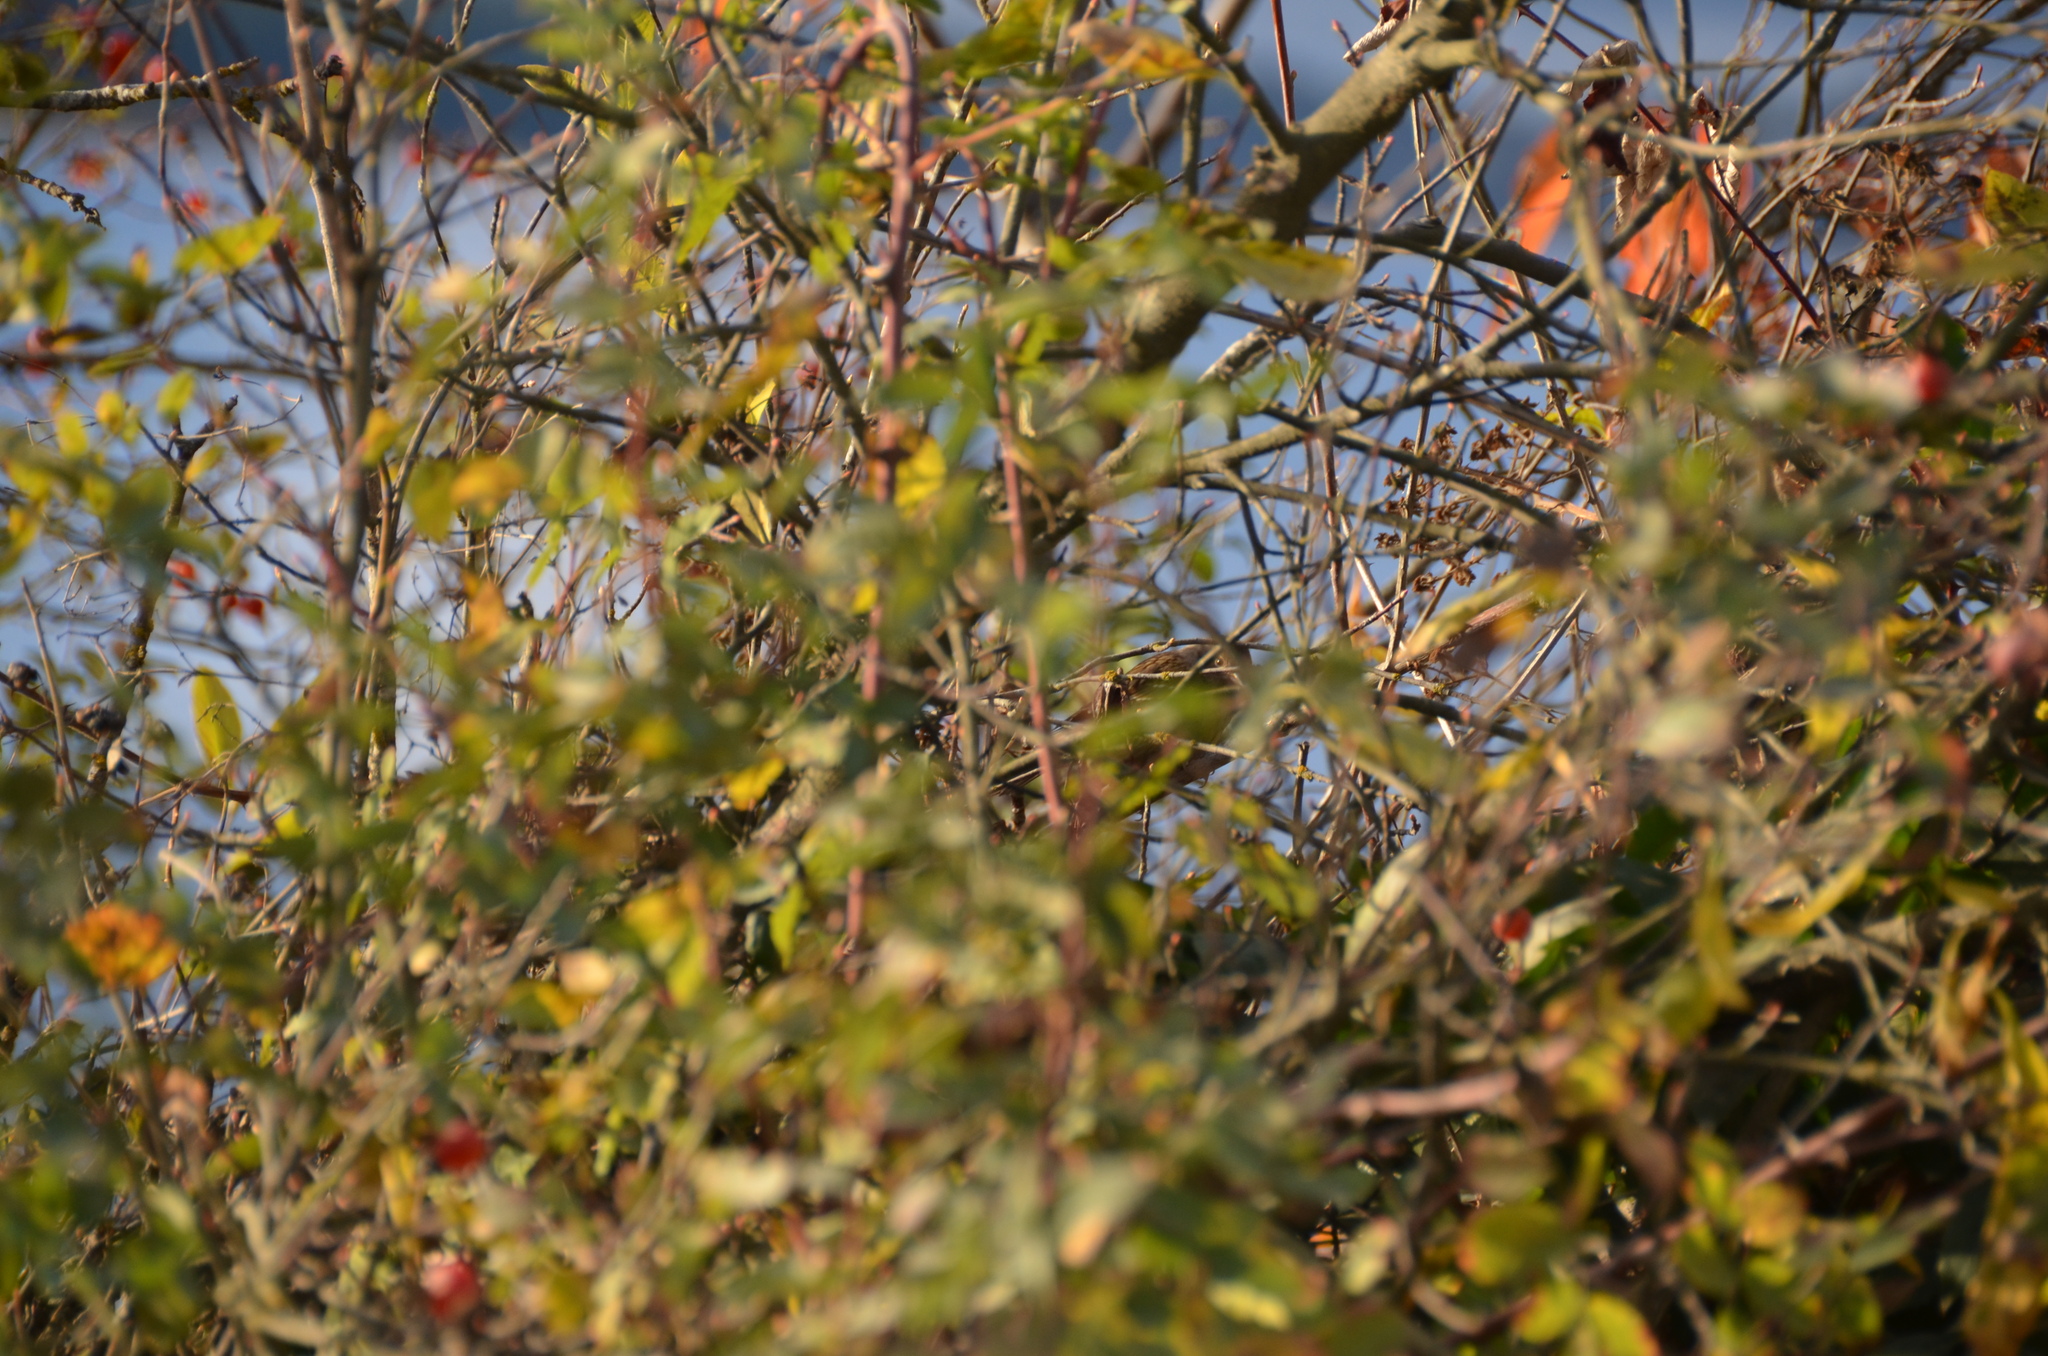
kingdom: Animalia
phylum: Chordata
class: Aves
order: Passeriformes
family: Passerellidae
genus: Zonotrichia
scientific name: Zonotrichia atricapilla
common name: Golden-crowned sparrow
